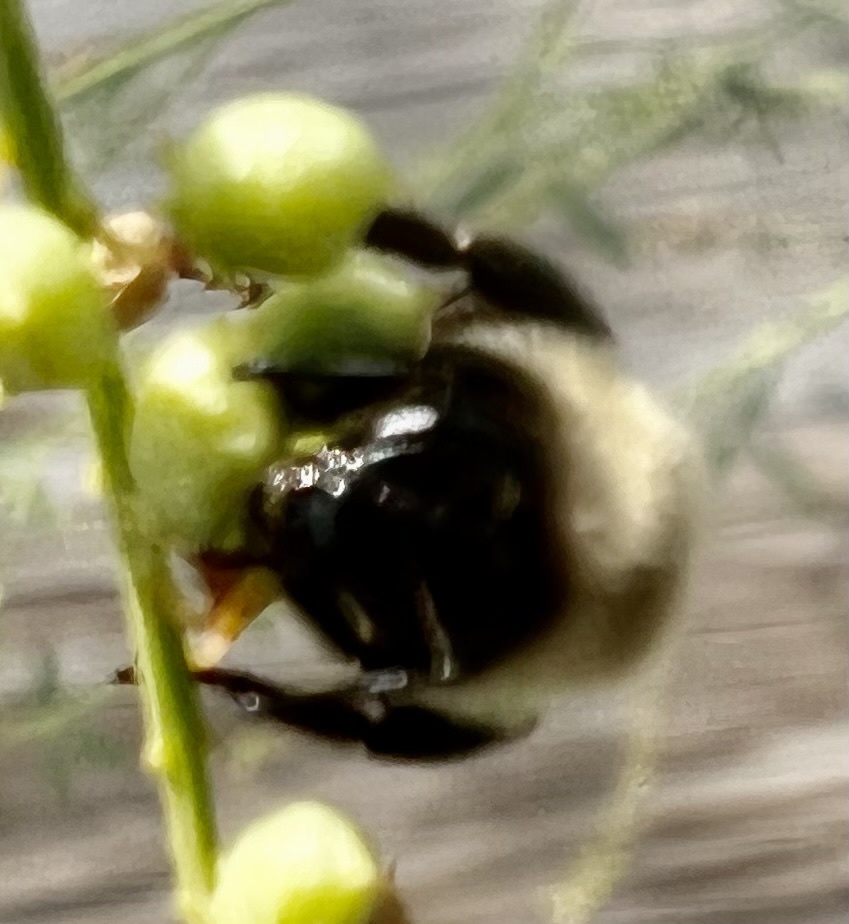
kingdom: Animalia
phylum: Arthropoda
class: Insecta
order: Hymenoptera
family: Apidae
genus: Bombus
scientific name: Bombus impatiens
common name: Common eastern bumble bee
